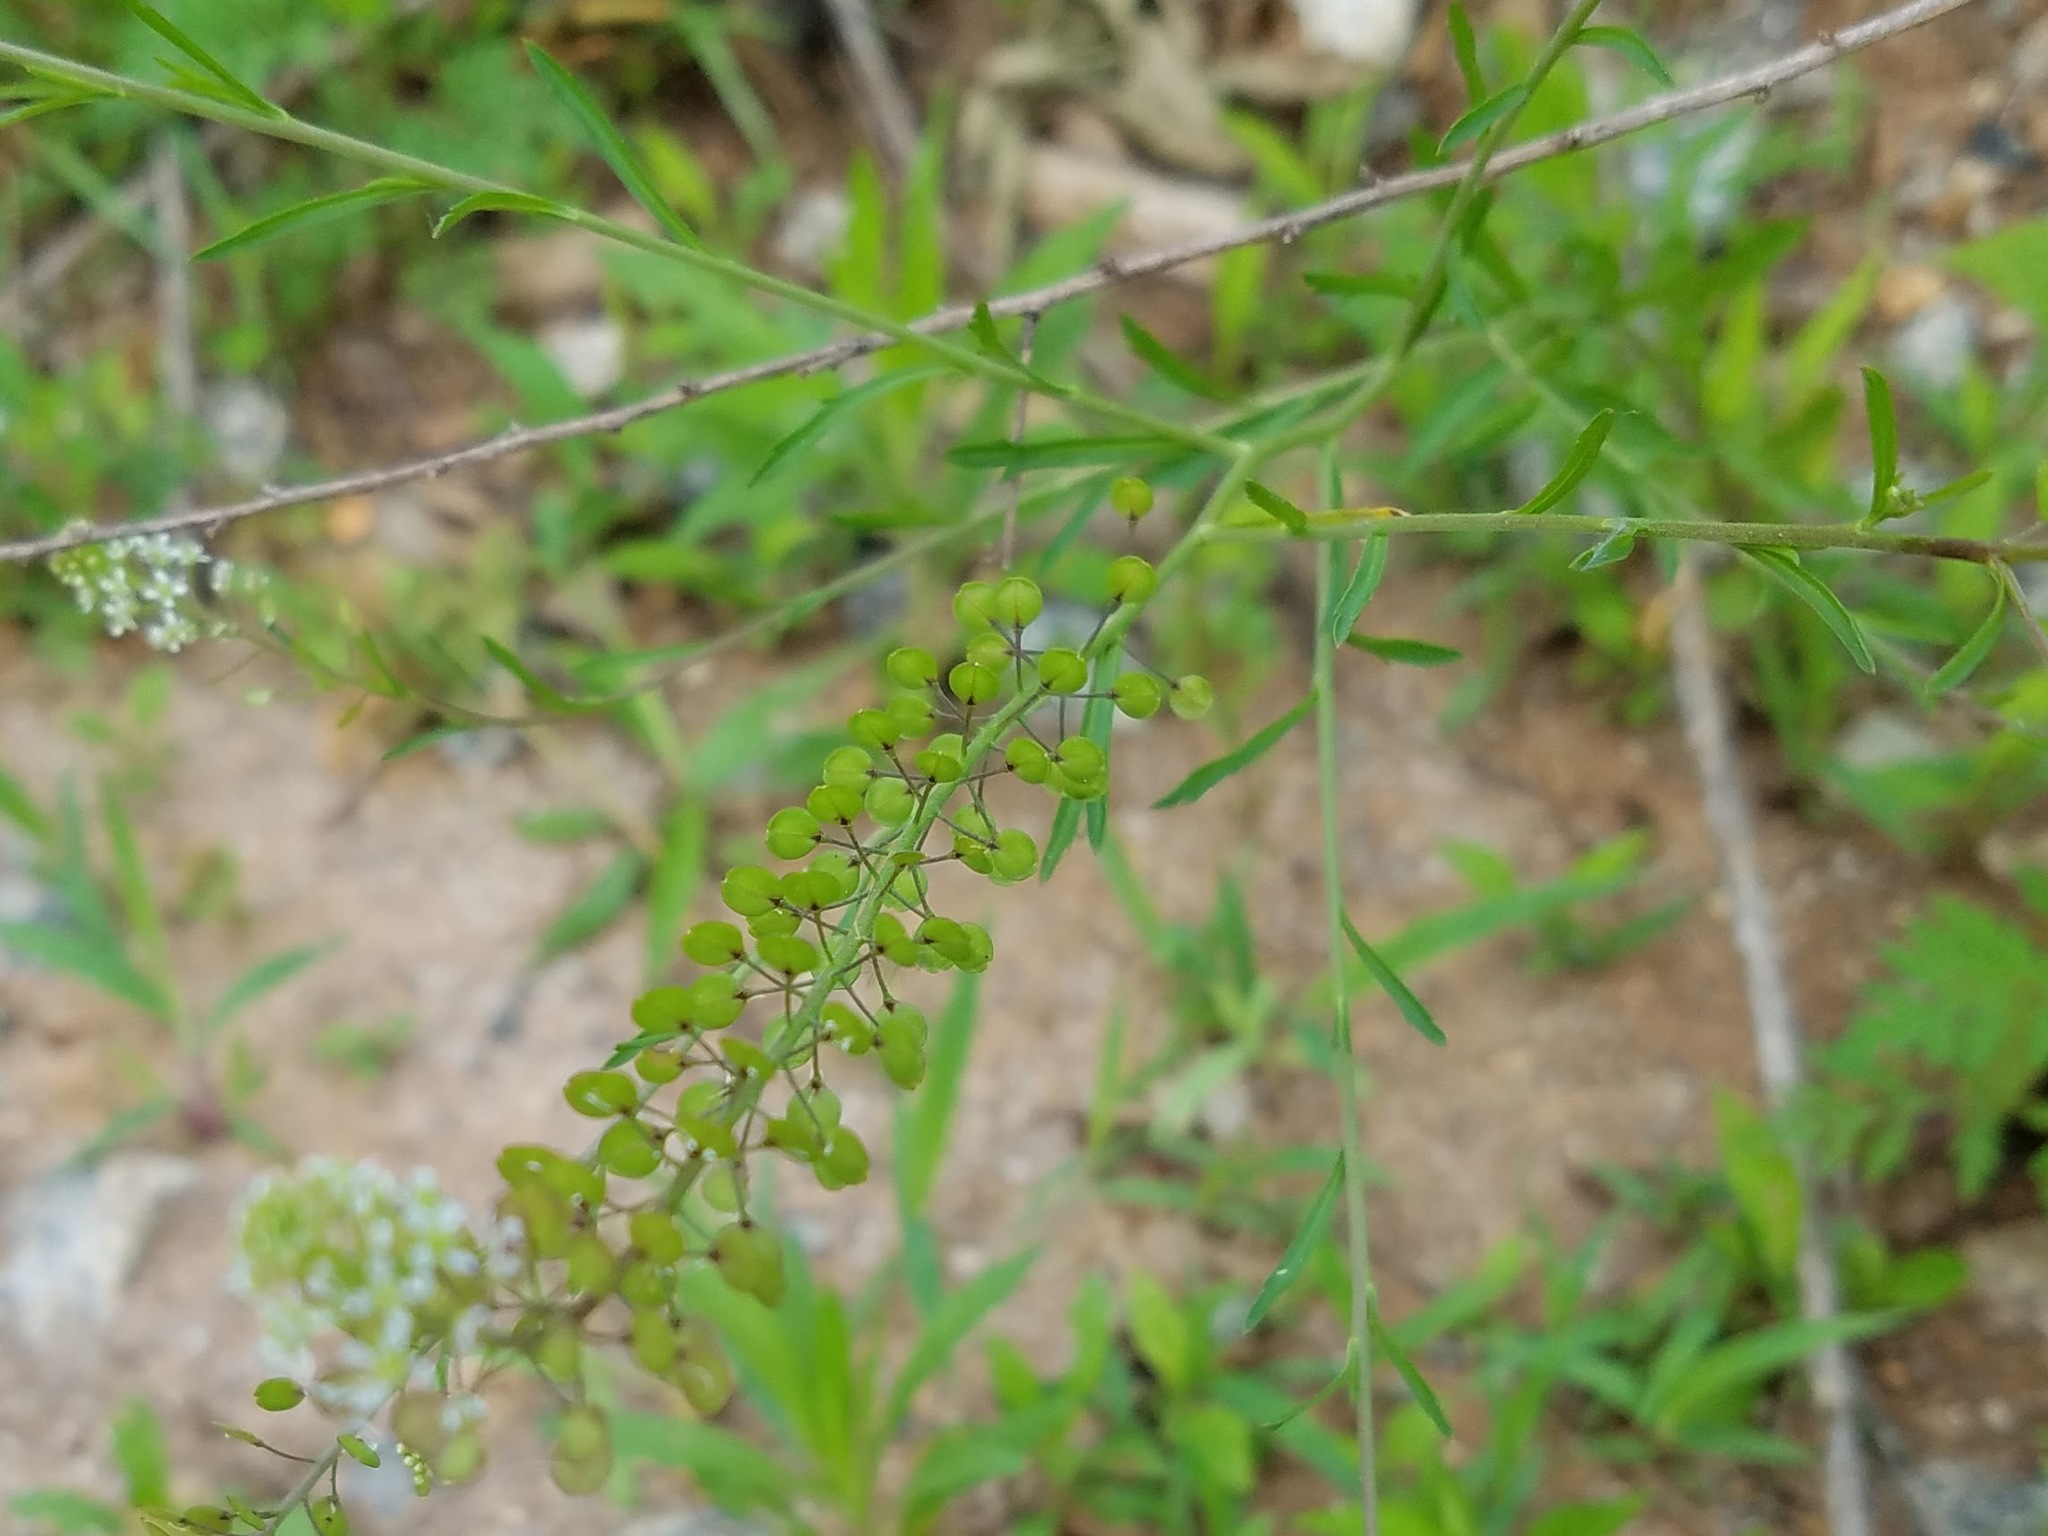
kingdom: Plantae
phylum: Tracheophyta
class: Magnoliopsida
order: Brassicales
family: Brassicaceae
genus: Lepidium
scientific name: Lepidium virginicum
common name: Least pepperwort
